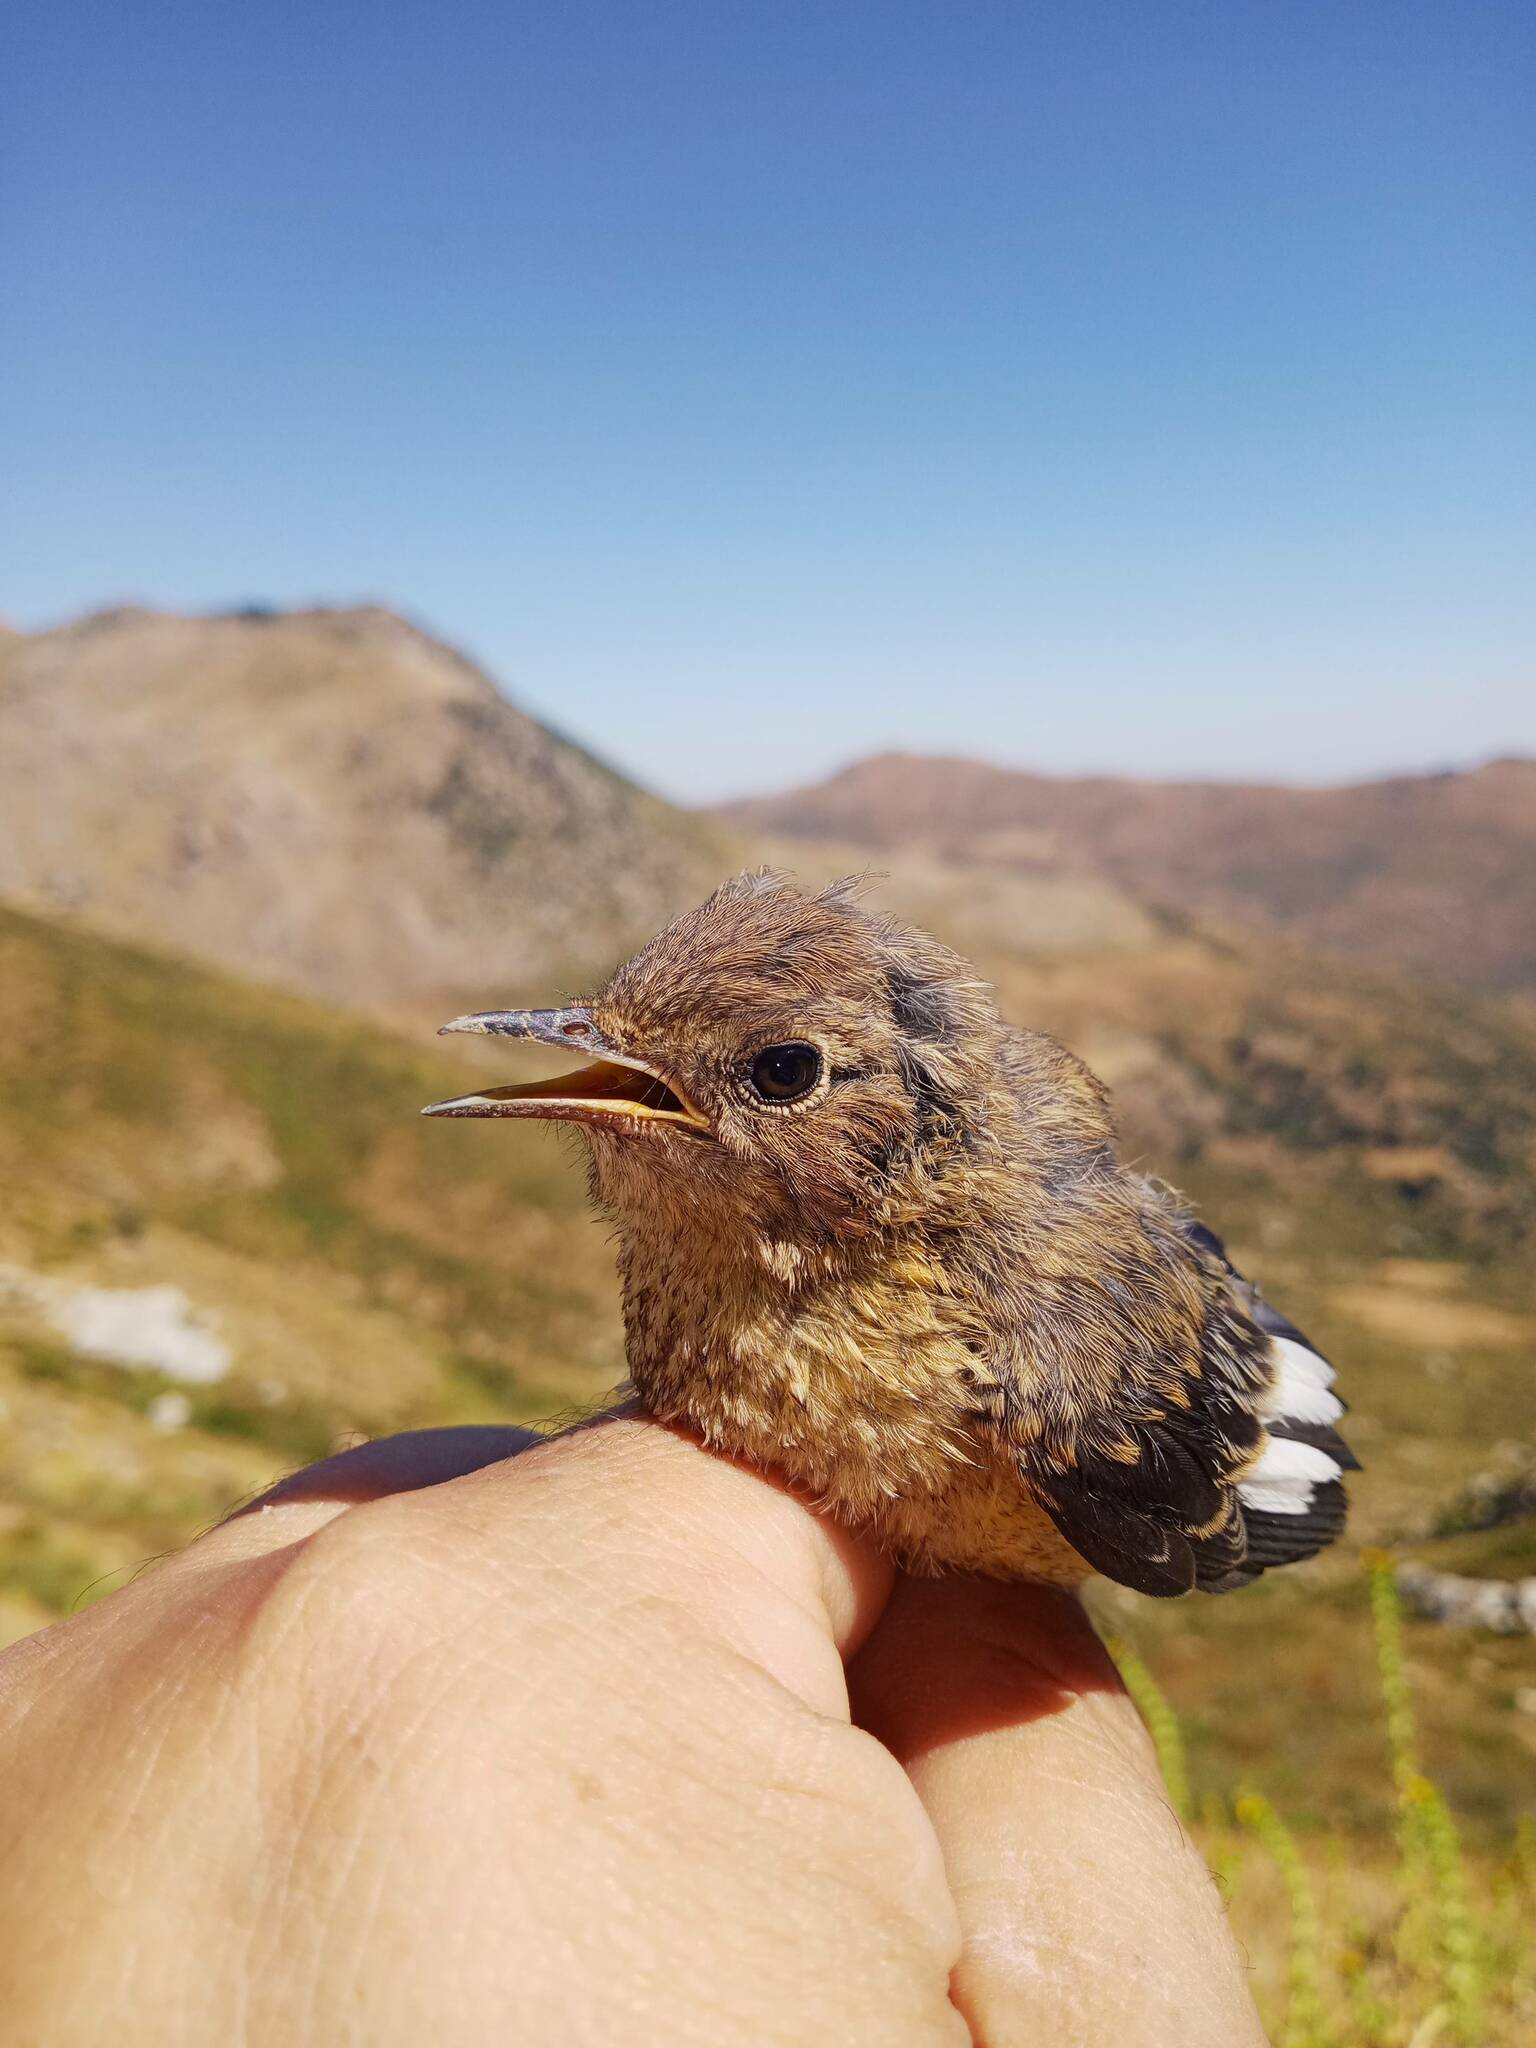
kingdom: Animalia
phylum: Chordata
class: Aves
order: Passeriformes
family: Muscicapidae
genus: Phoenicurus
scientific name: Phoenicurus moussieri
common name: Moussier's redstart
